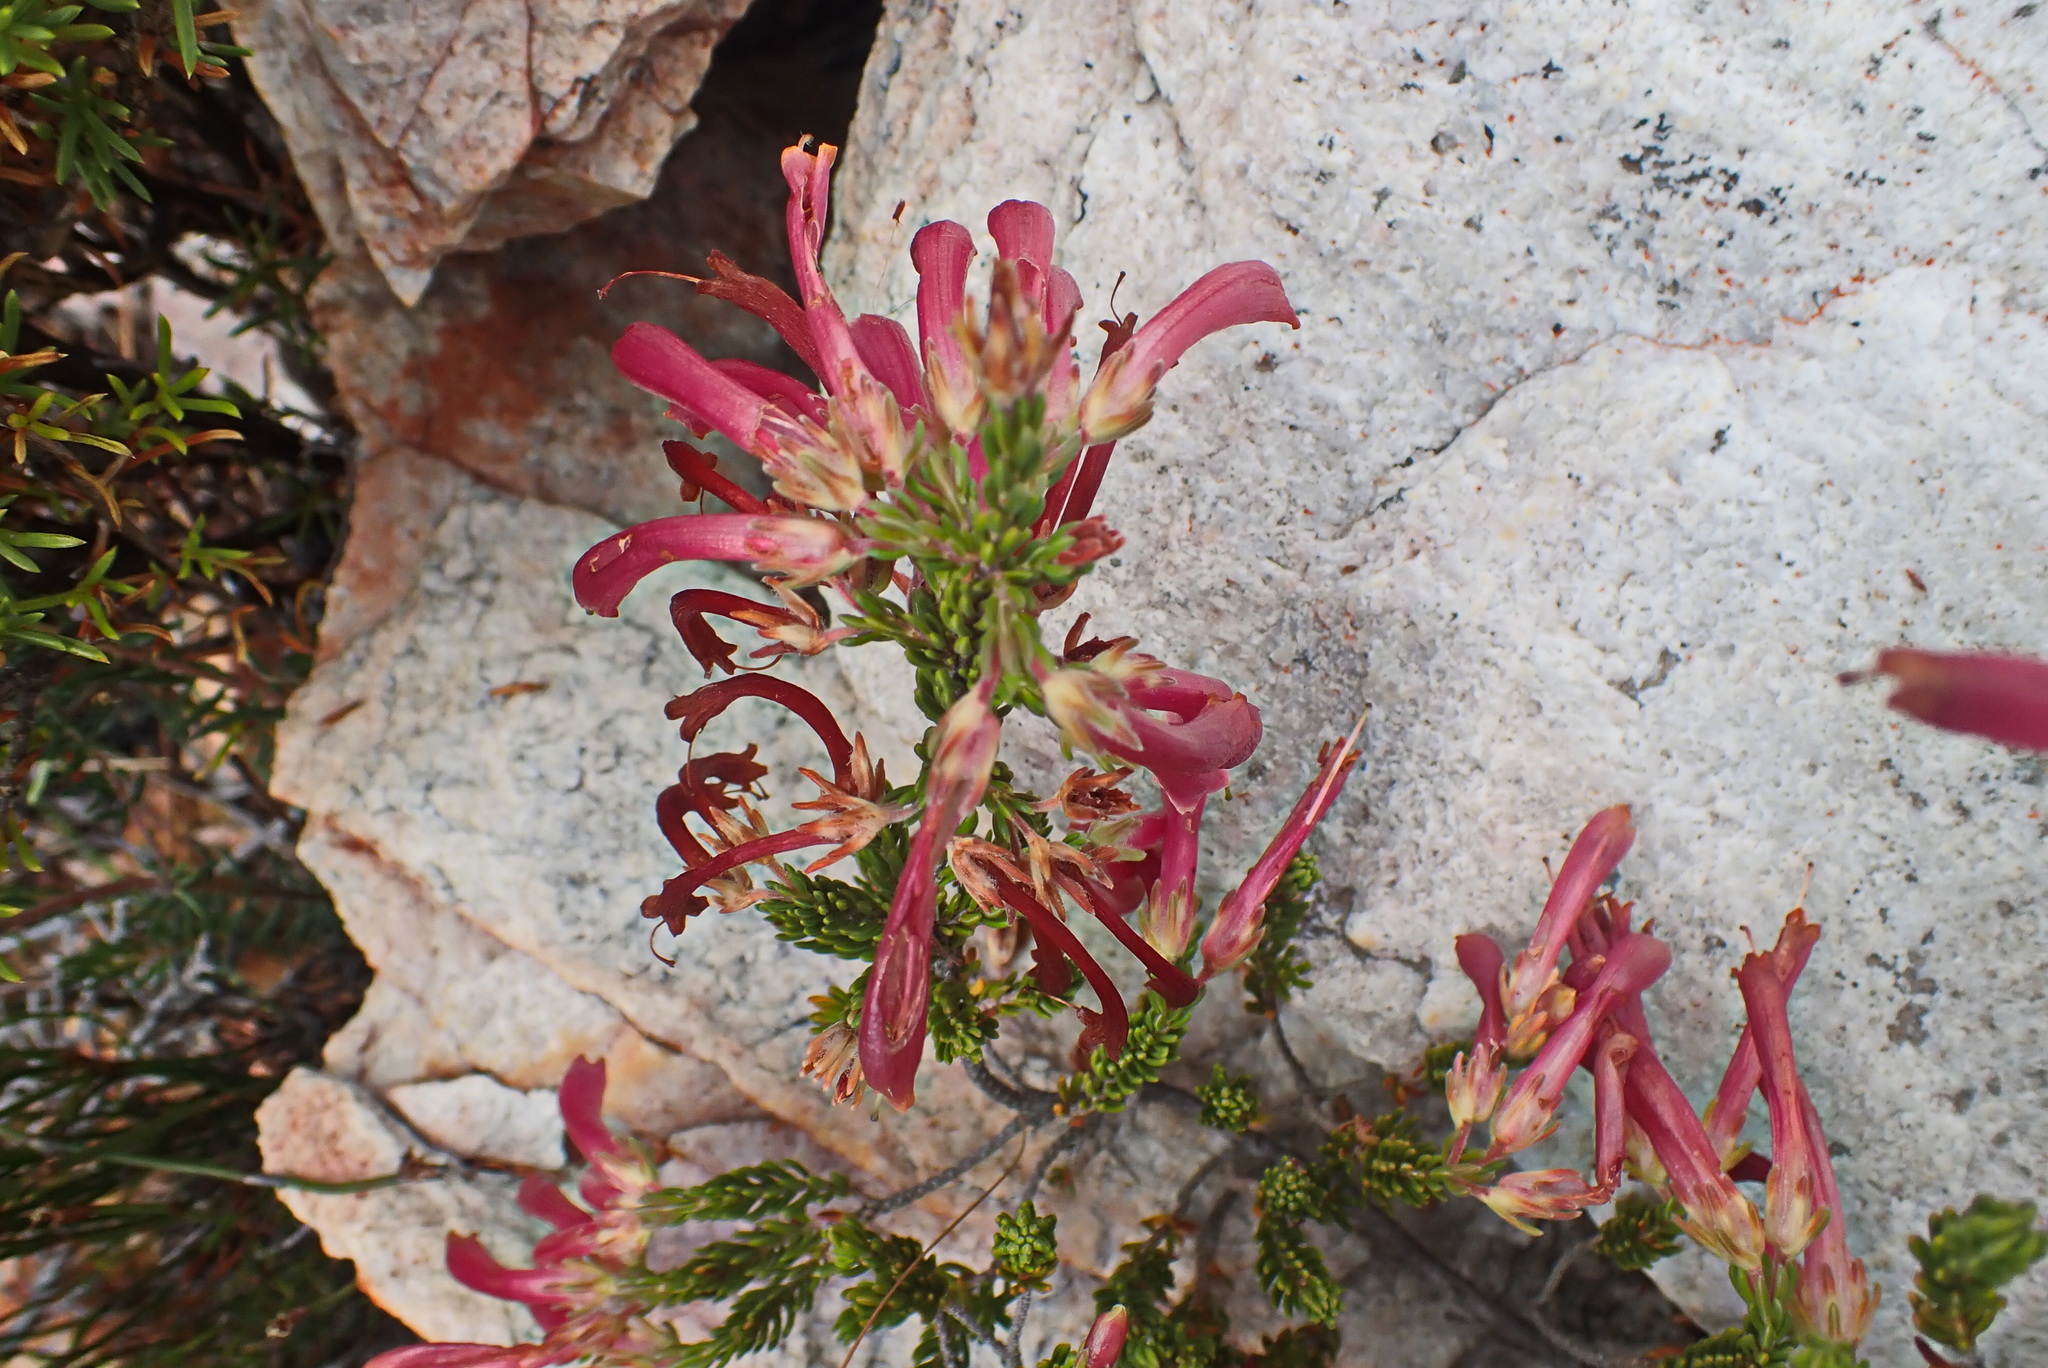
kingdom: Plantae
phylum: Tracheophyta
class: Magnoliopsida
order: Ericales
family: Ericaceae
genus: Erica
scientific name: Erica discolor
